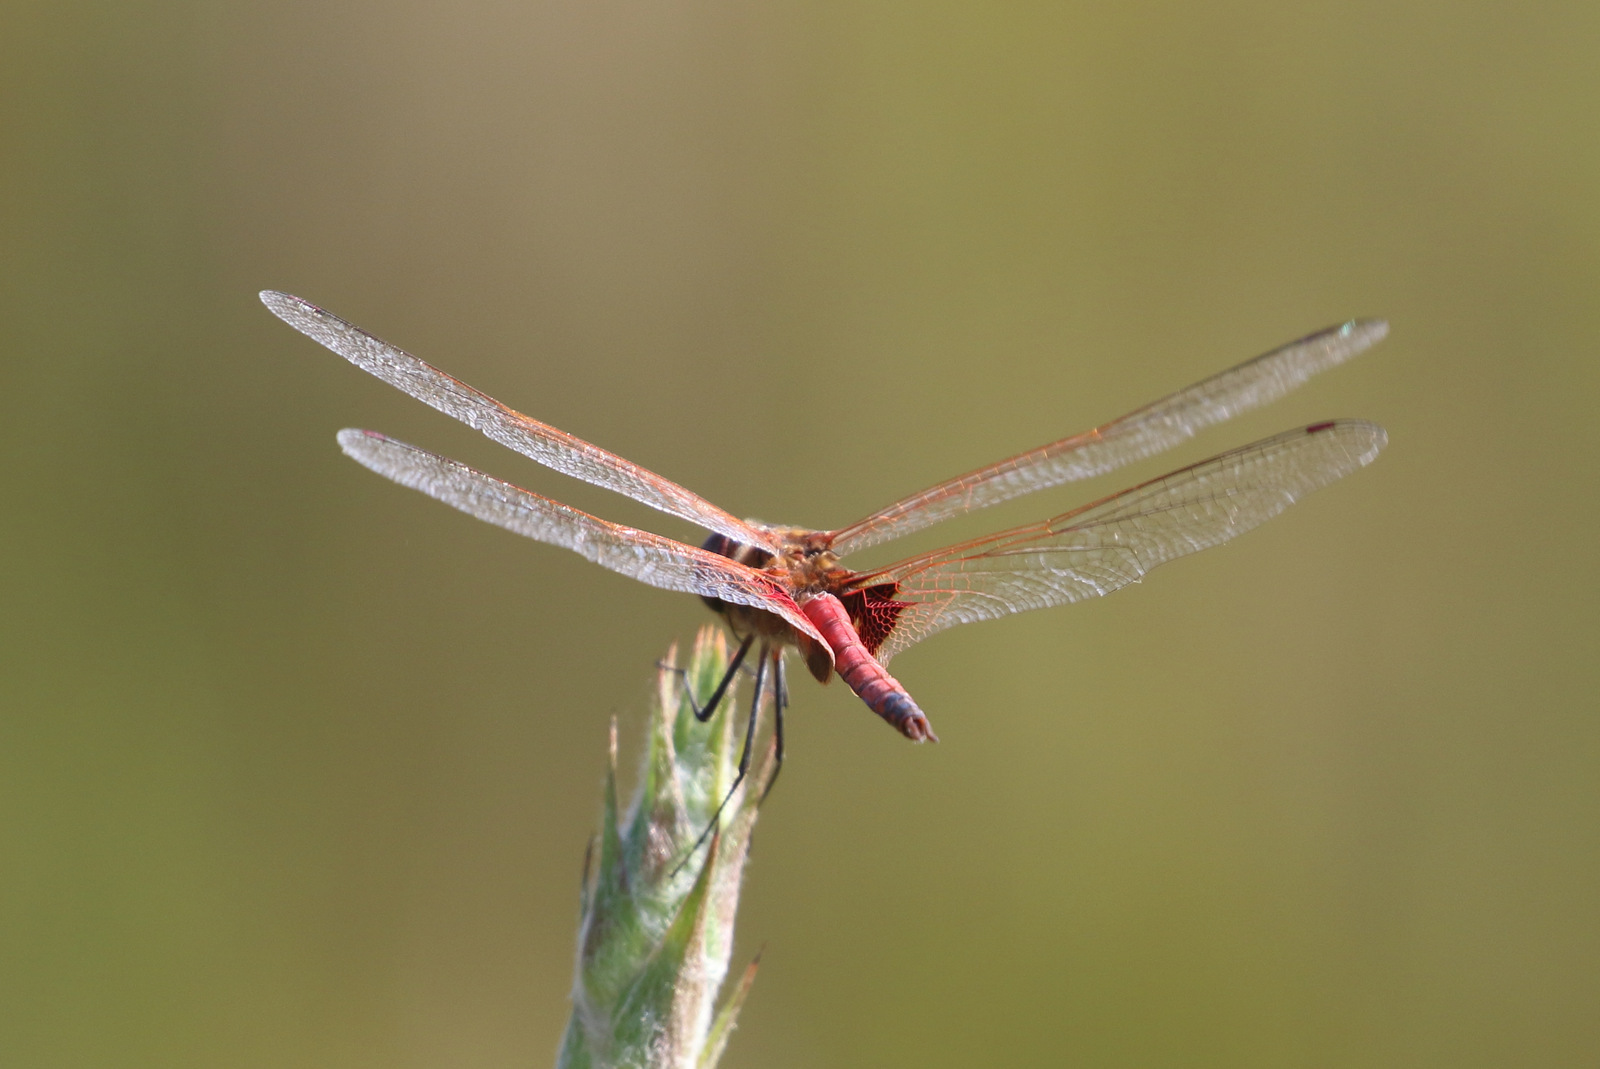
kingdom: Animalia
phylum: Arthropoda
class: Insecta
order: Odonata
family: Libellulidae
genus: Tramea
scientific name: Tramea loewii
